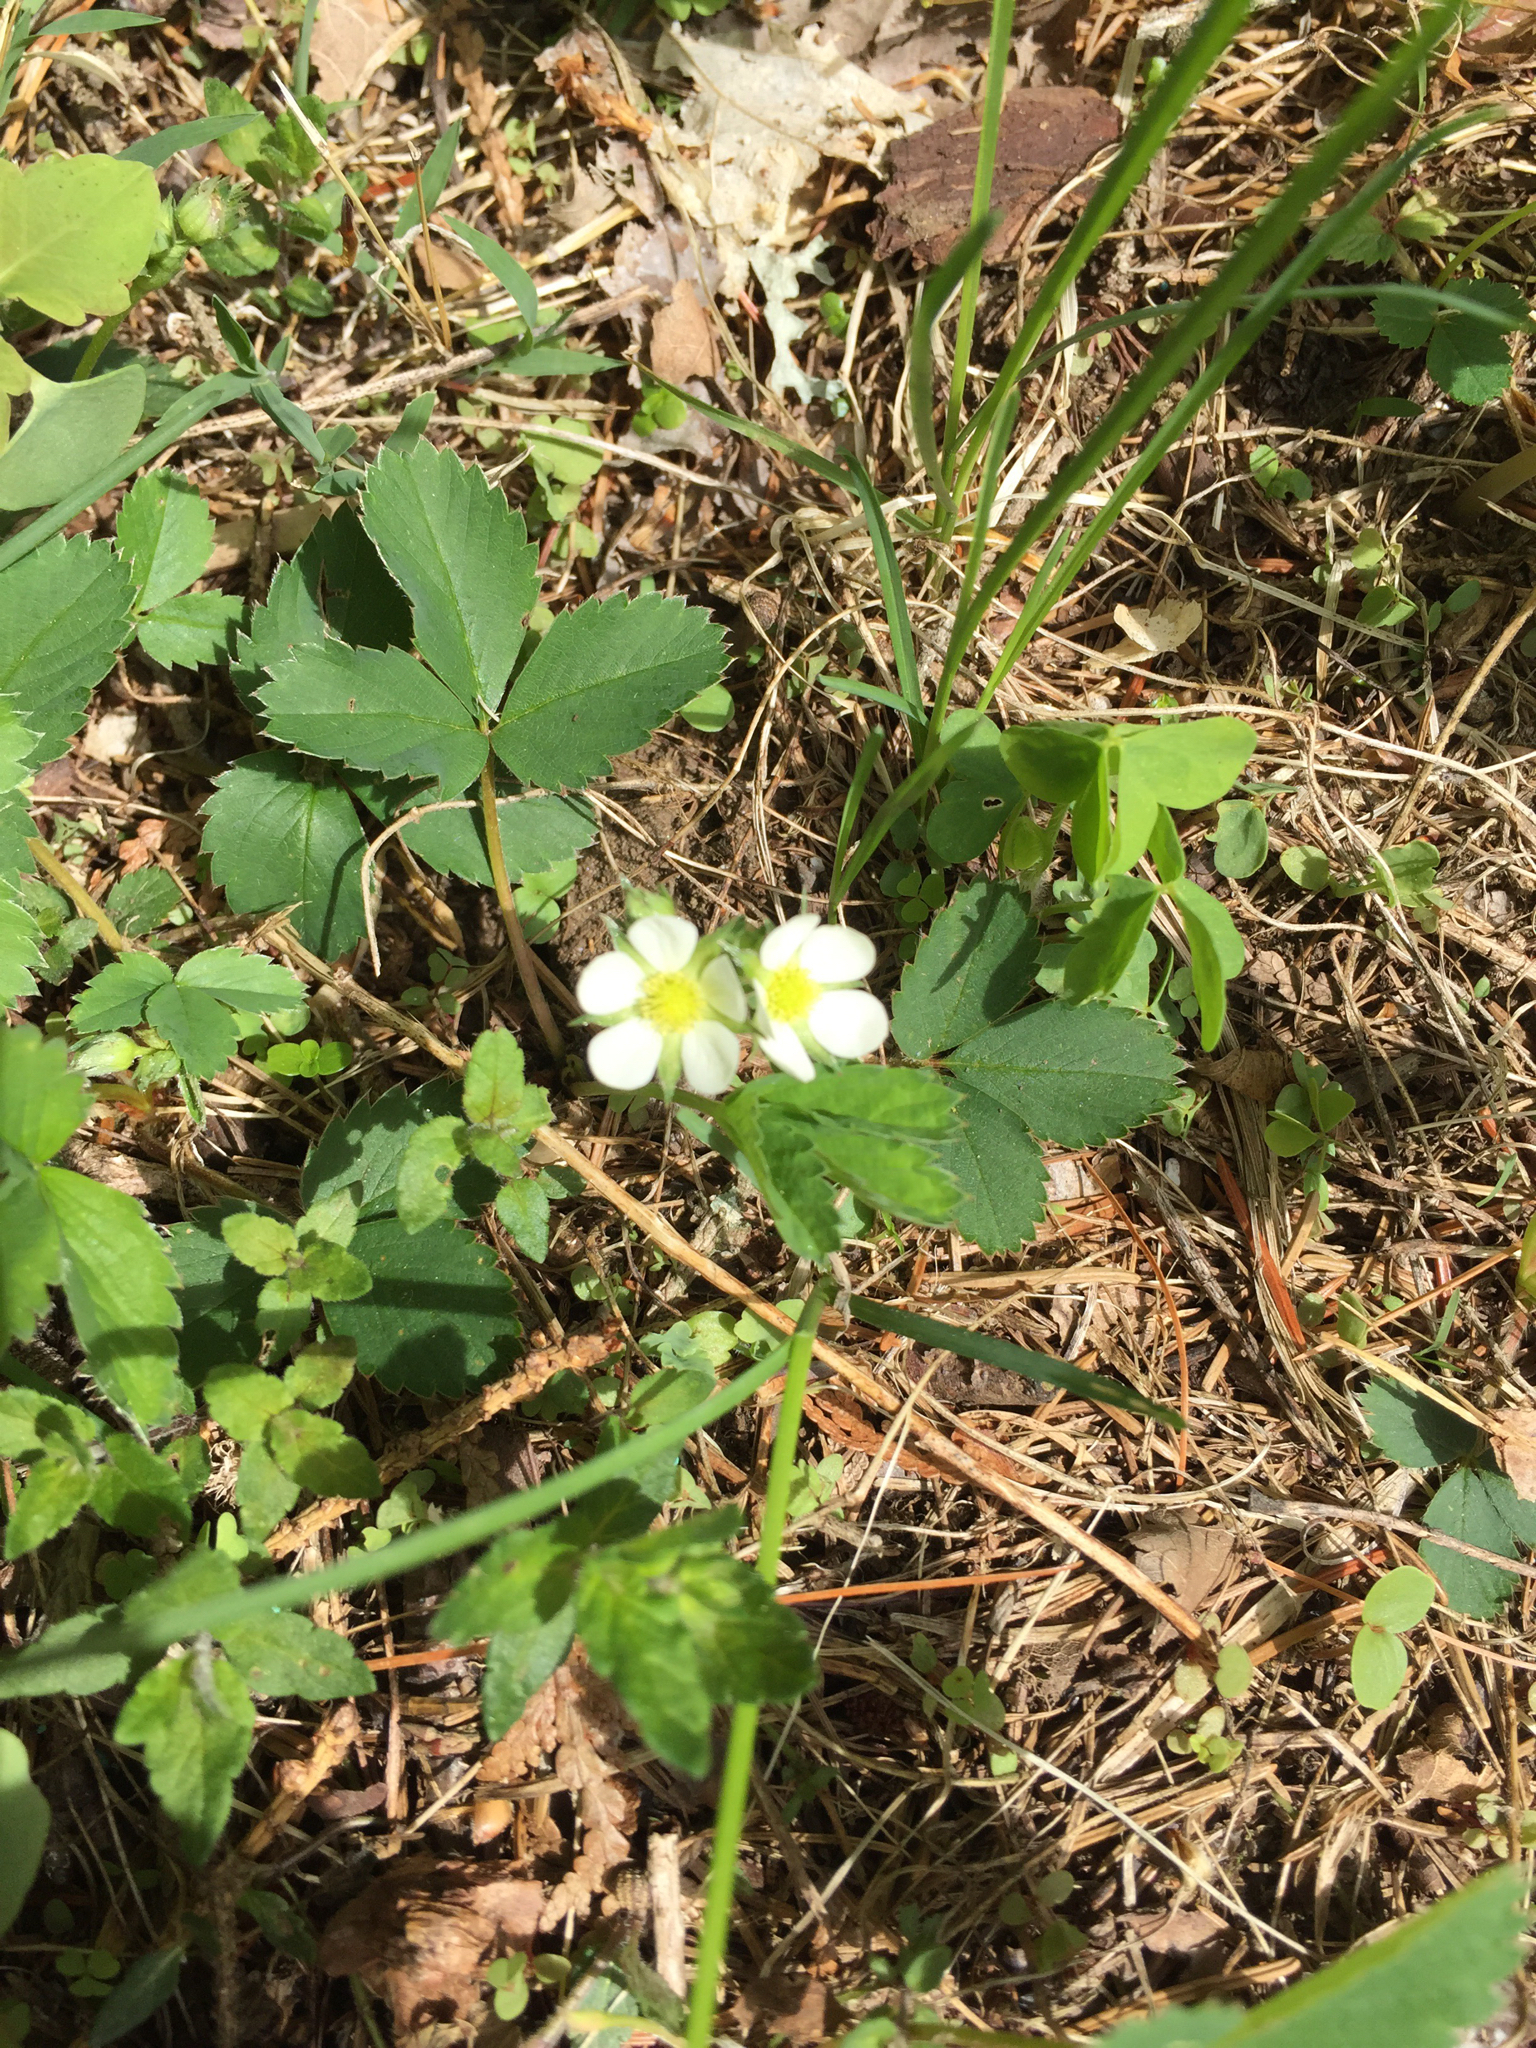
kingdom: Plantae
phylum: Tracheophyta
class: Magnoliopsida
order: Rosales
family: Rosaceae
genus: Fragaria
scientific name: Fragaria vesca
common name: Wild strawberry
